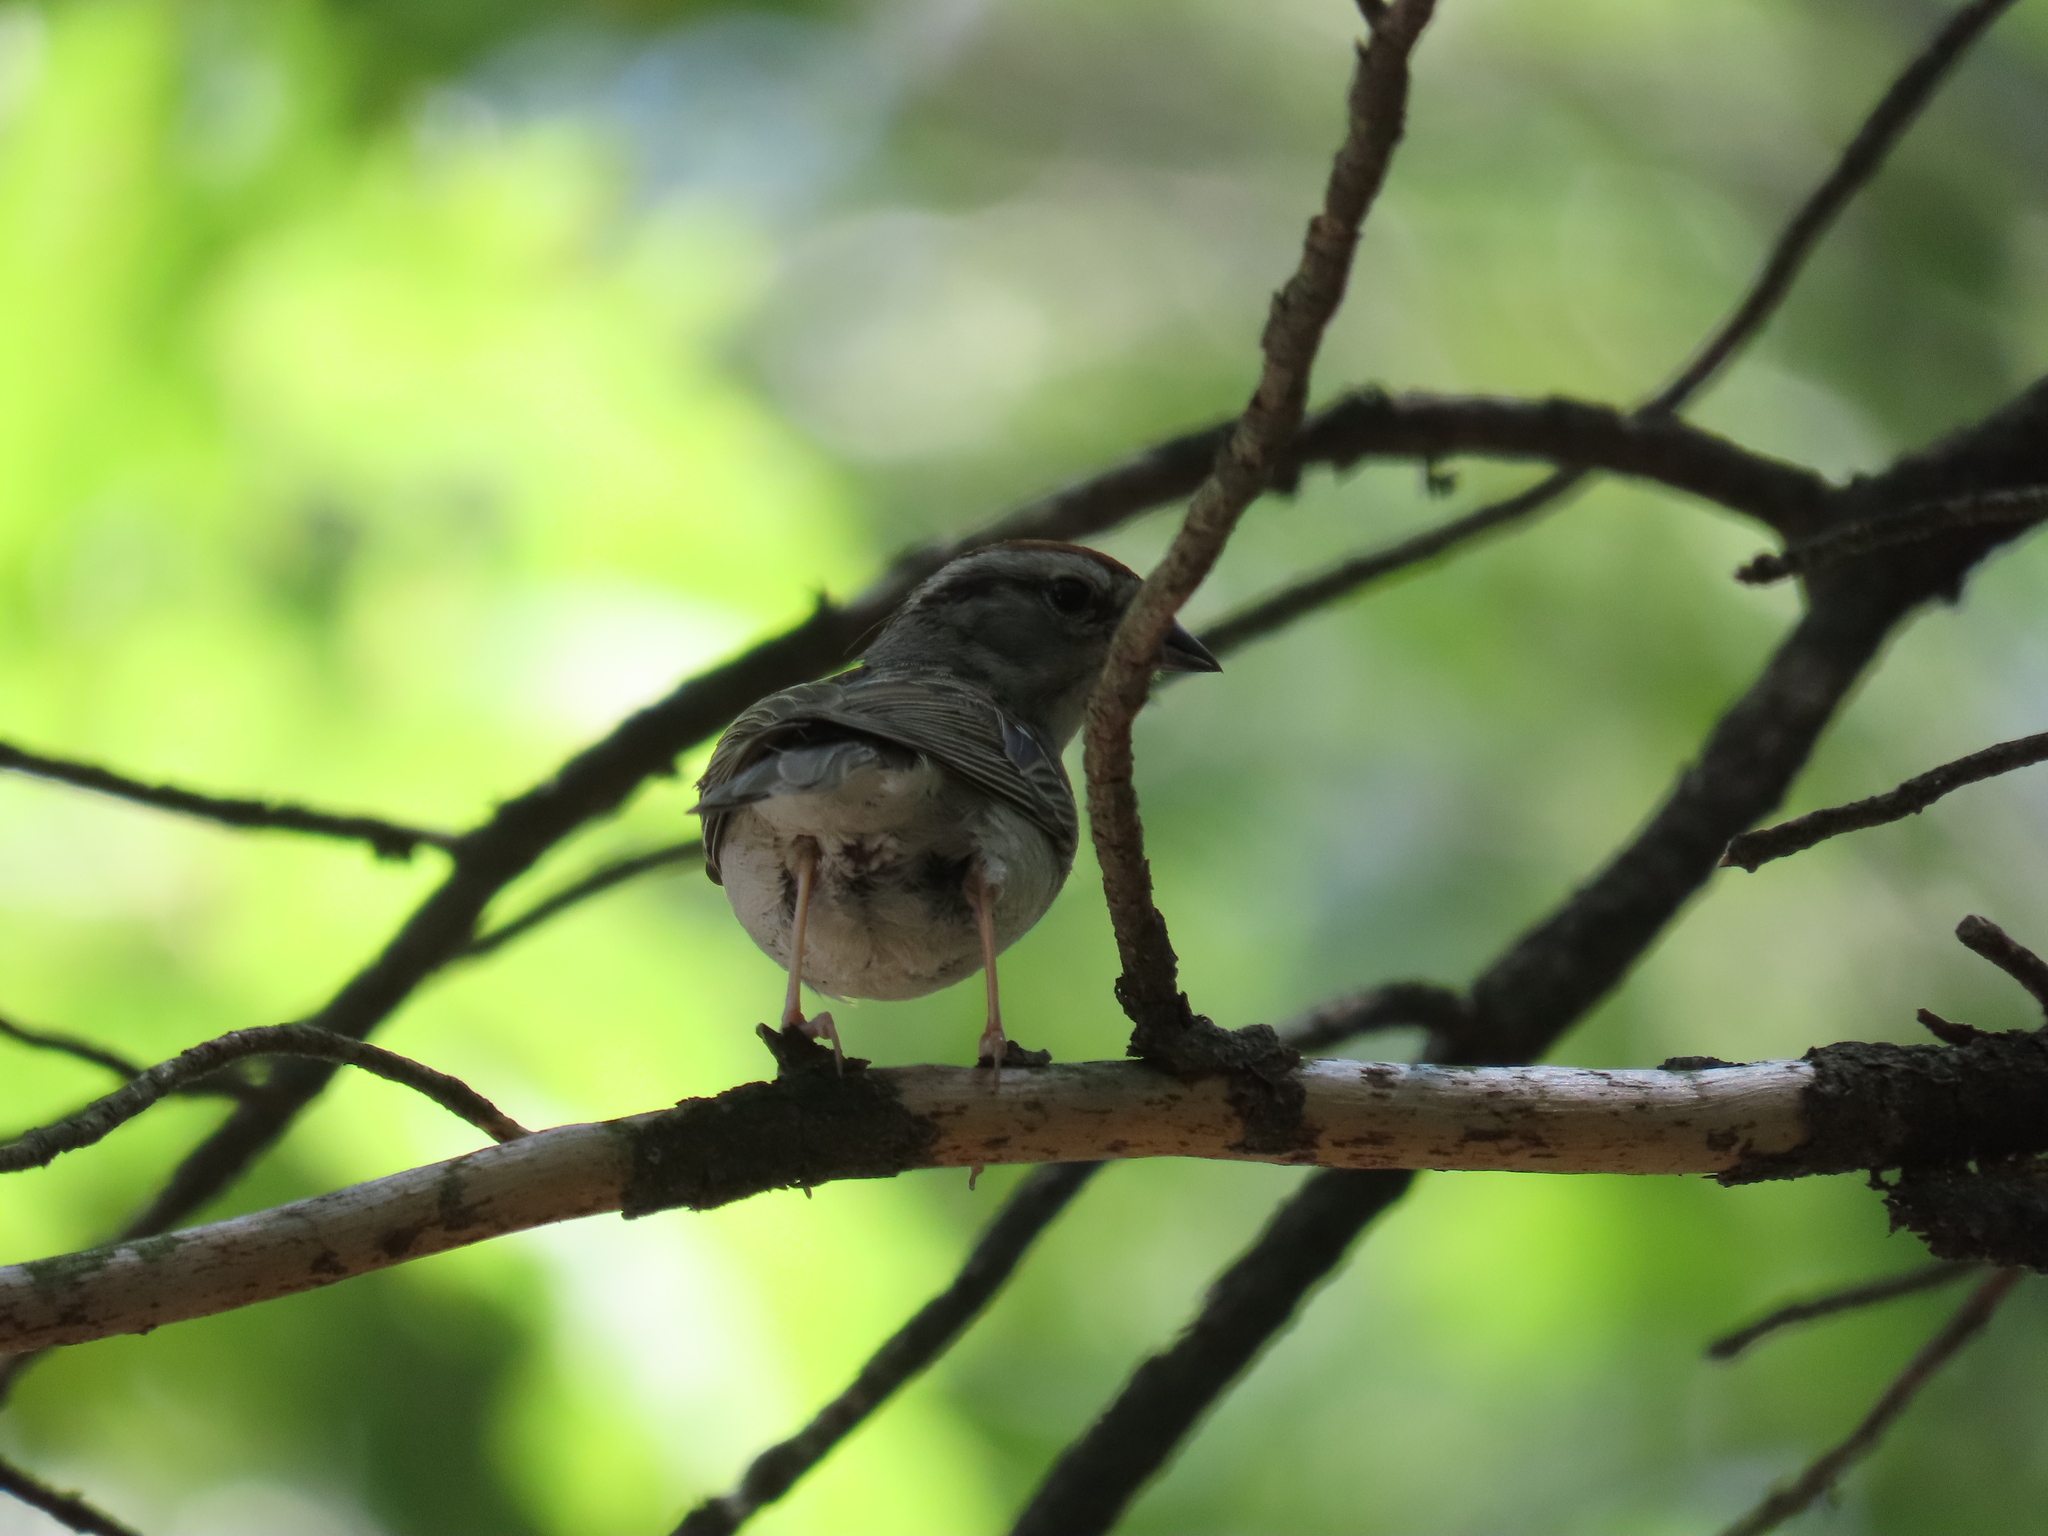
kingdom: Animalia
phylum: Chordata
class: Aves
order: Passeriformes
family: Passerellidae
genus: Spizella
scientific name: Spizella passerina
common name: Chipping sparrow
